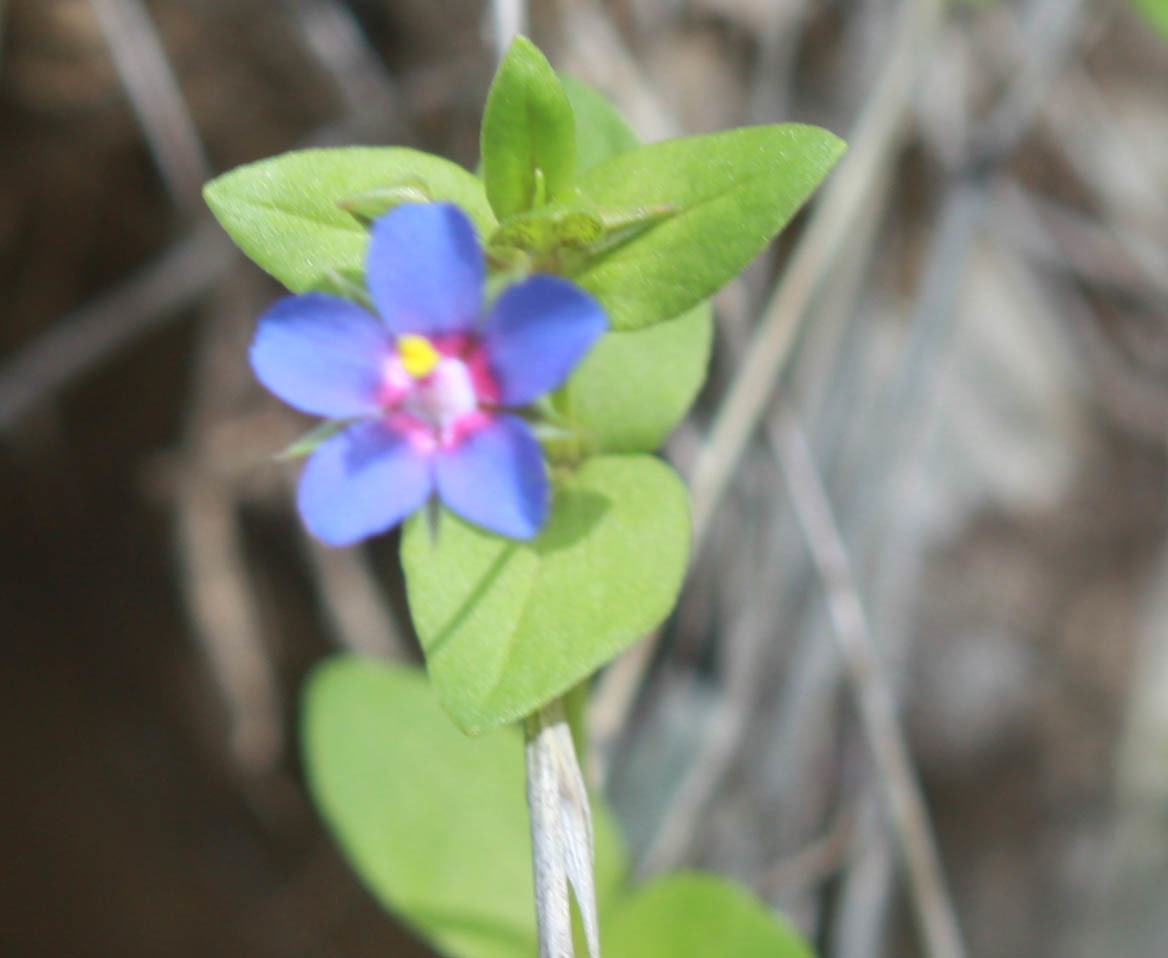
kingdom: Plantae
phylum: Tracheophyta
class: Magnoliopsida
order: Ericales
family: Primulaceae
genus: Lysimachia
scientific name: Lysimachia arvensis
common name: Scarlet pimpernel
